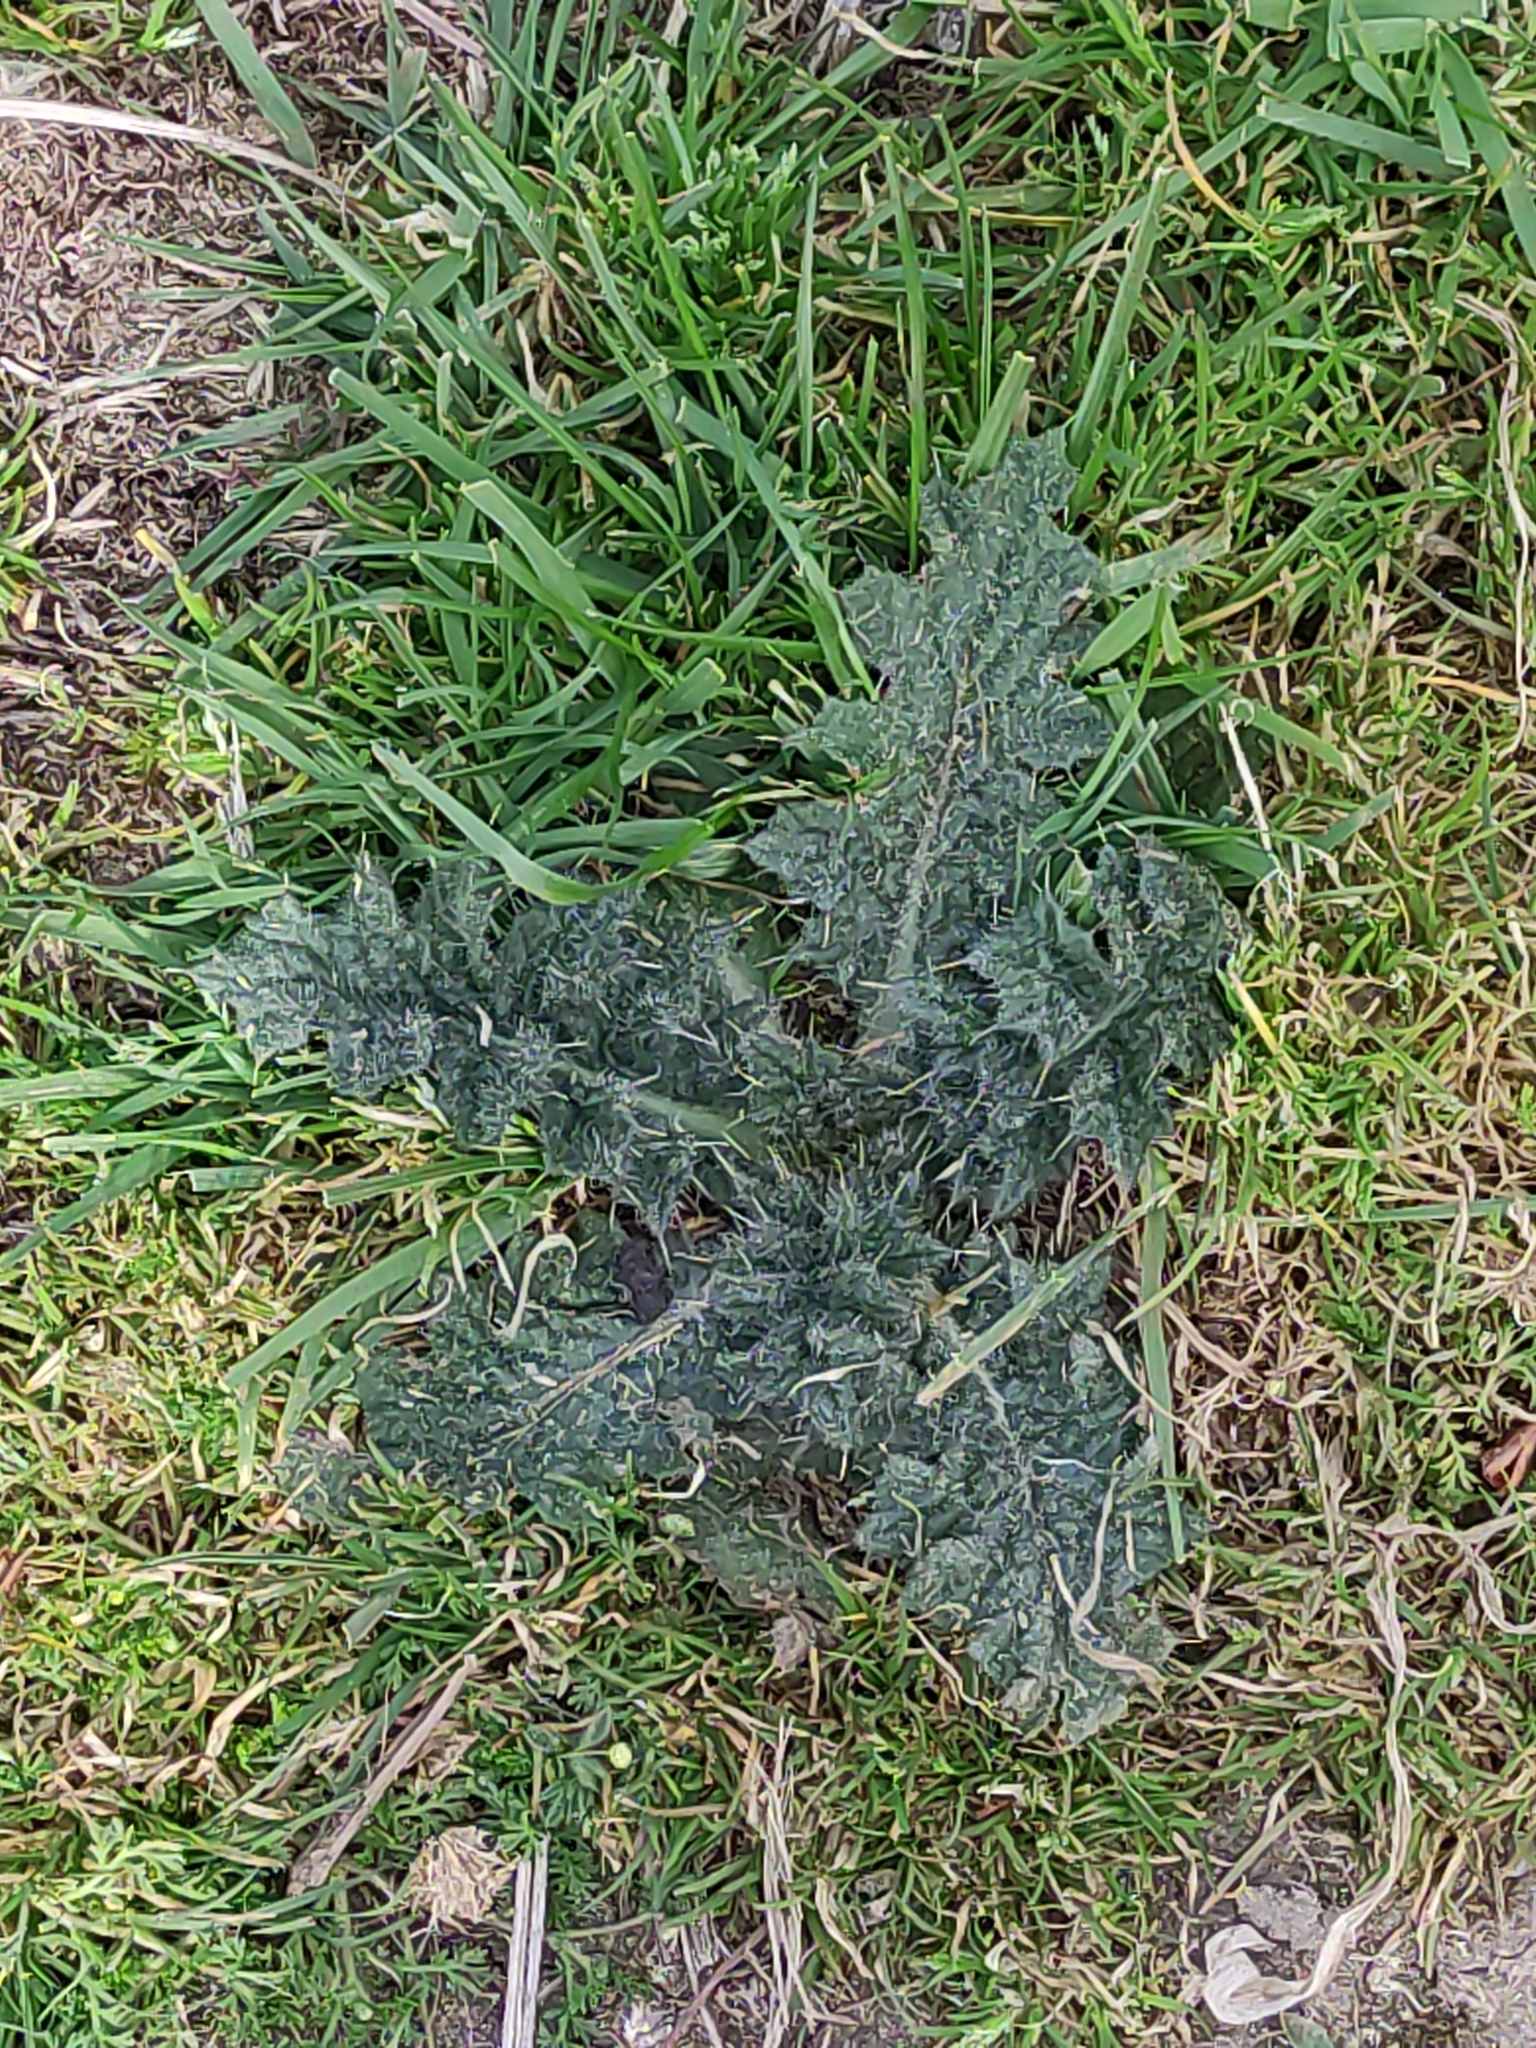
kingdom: Plantae
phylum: Tracheophyta
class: Magnoliopsida
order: Asterales
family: Asteraceae
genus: Cirsium
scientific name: Cirsium vulgare
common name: Bull thistle
